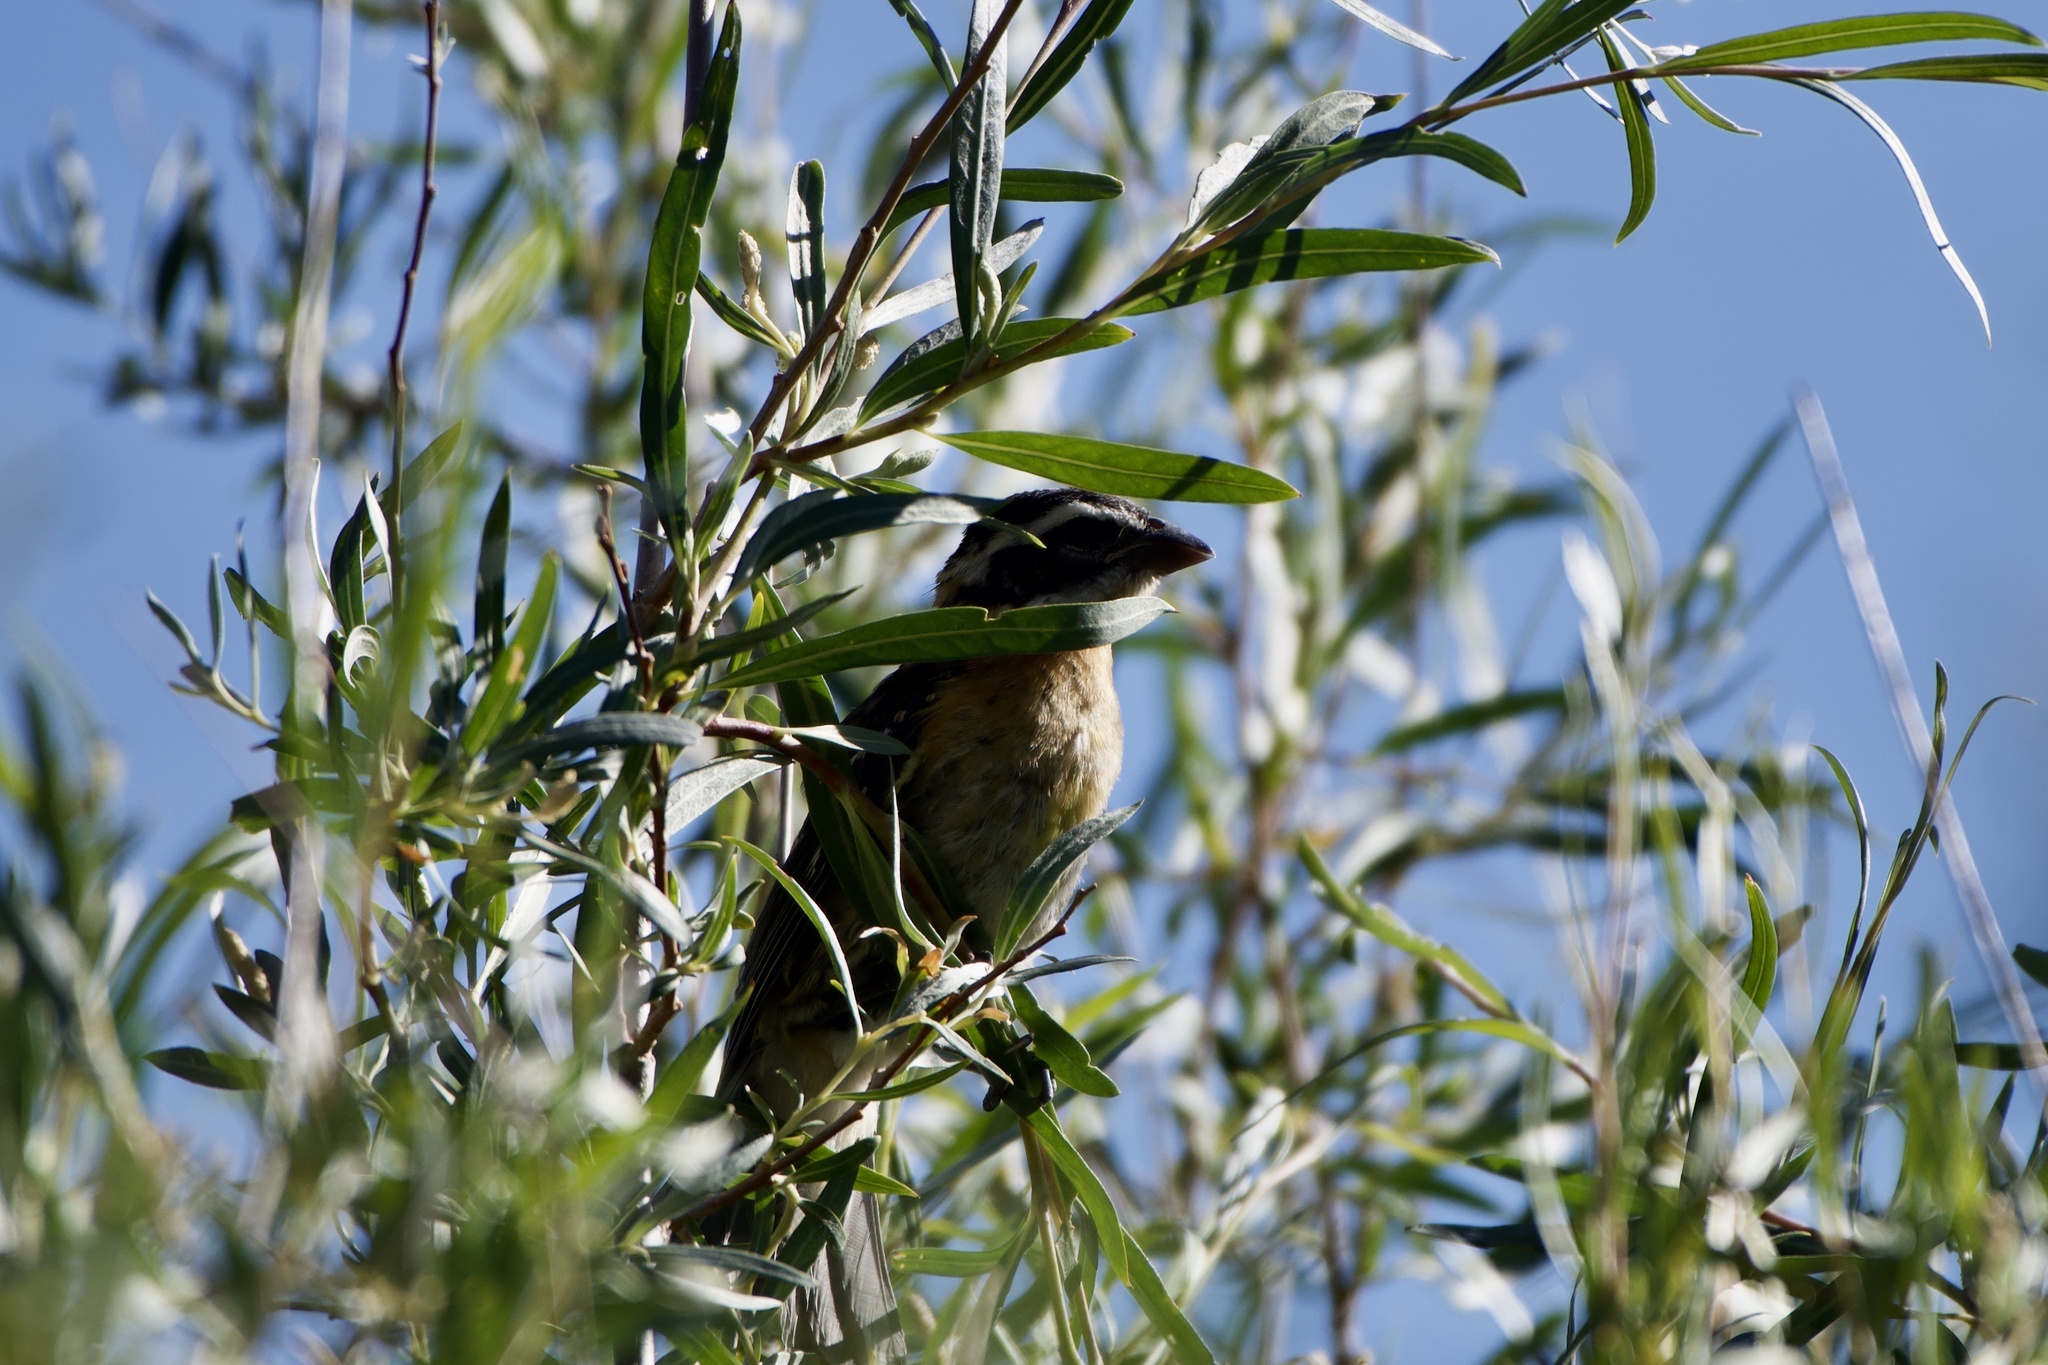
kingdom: Animalia
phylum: Chordata
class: Aves
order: Passeriformes
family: Cardinalidae
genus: Pheucticus
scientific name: Pheucticus melanocephalus
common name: Black-headed grosbeak
